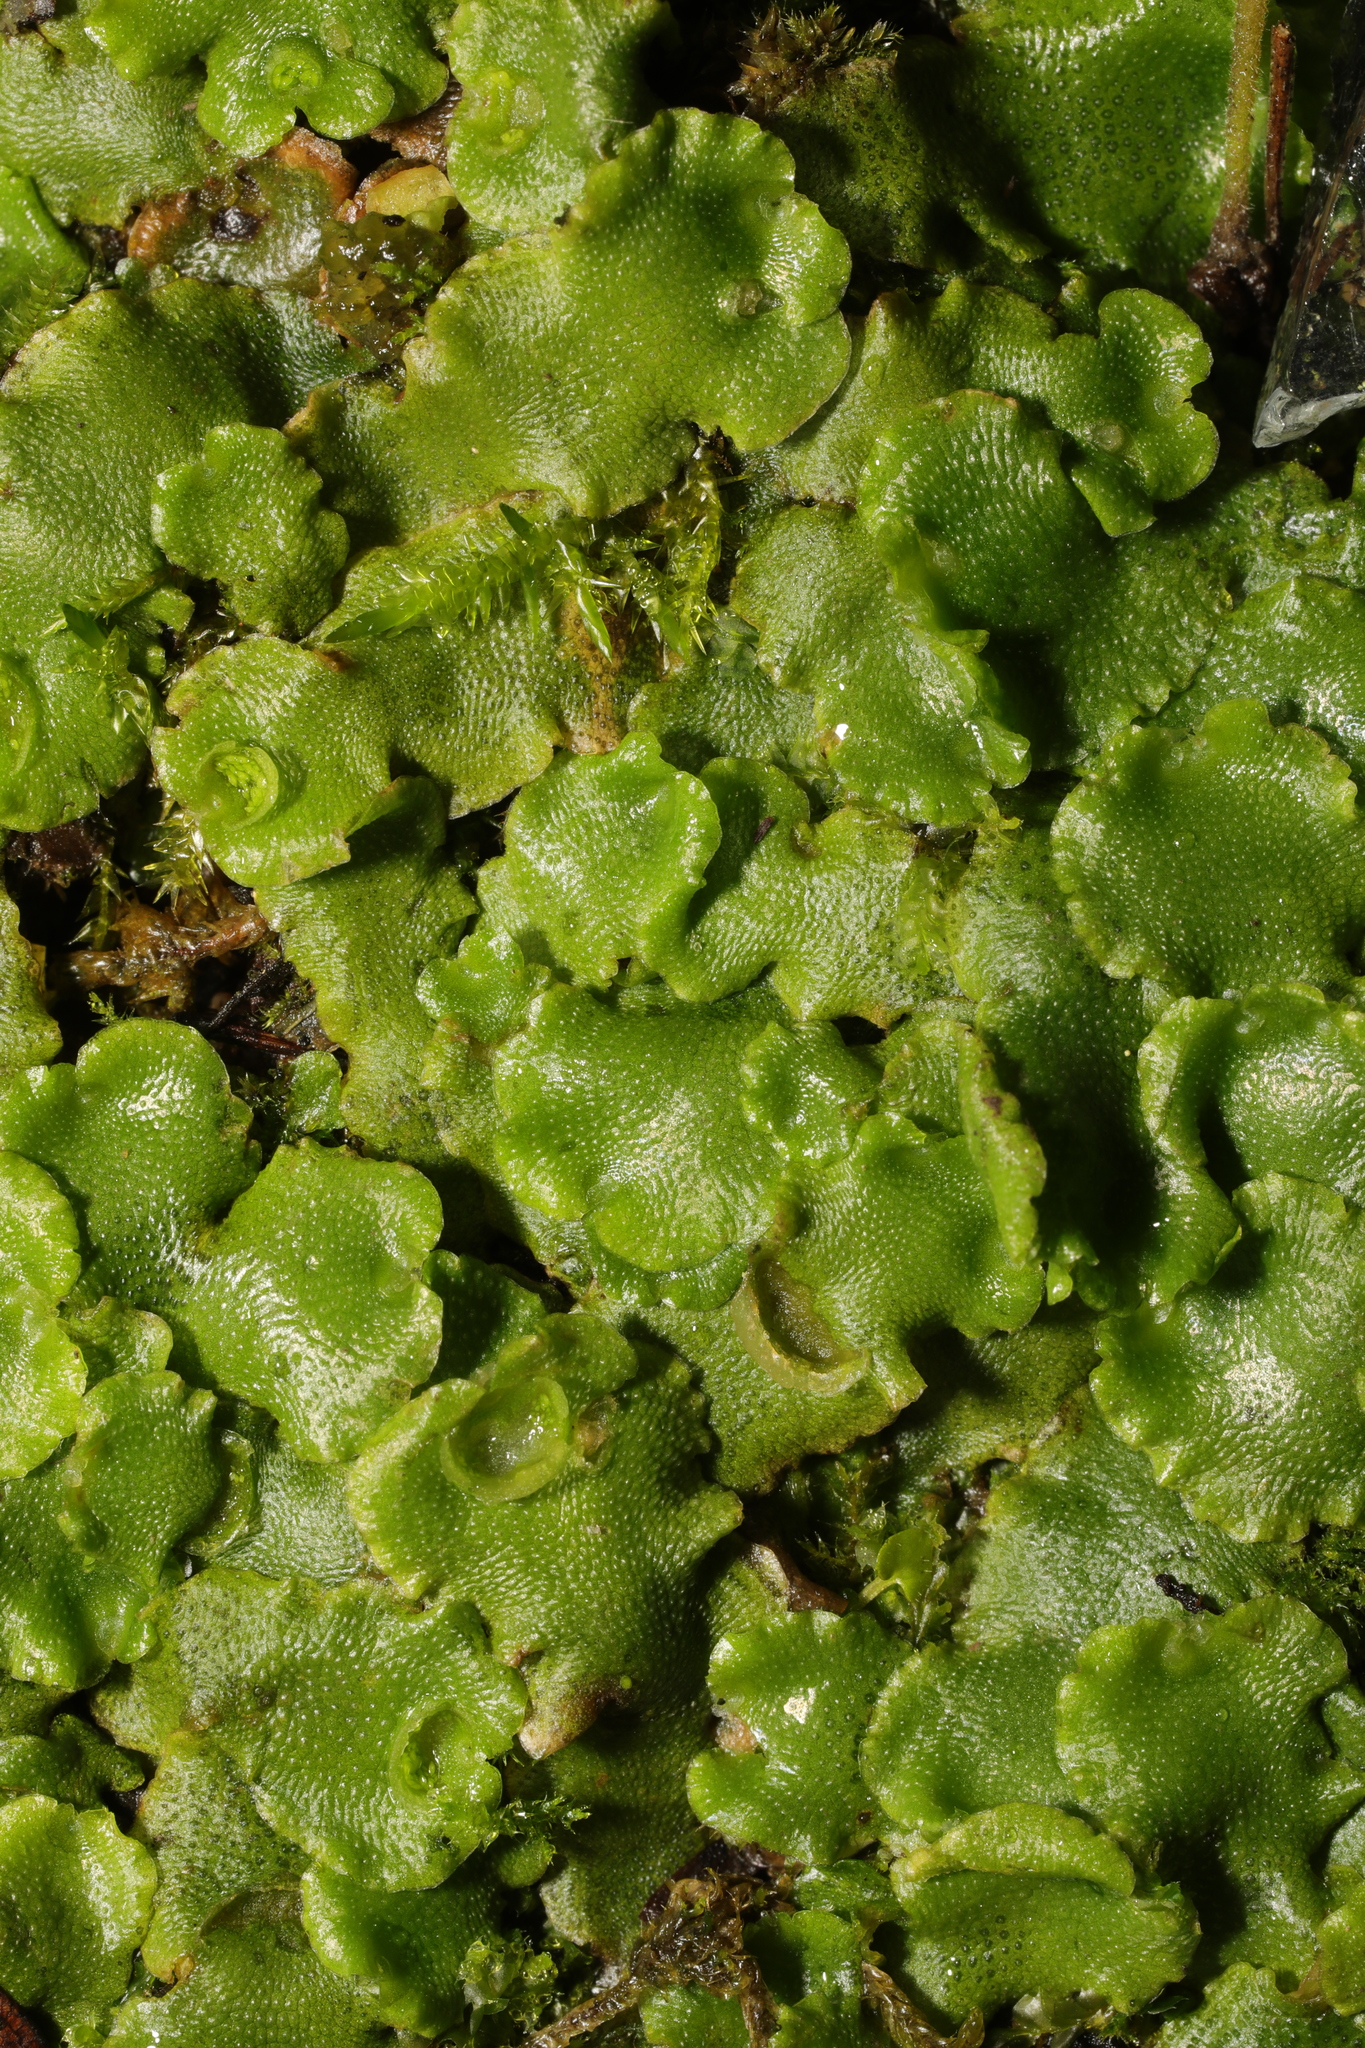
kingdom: Plantae
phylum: Marchantiophyta
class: Marchantiopsida
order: Lunulariales
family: Lunulariaceae
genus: Lunularia
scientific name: Lunularia cruciata
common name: Crescent-cup liverwort
